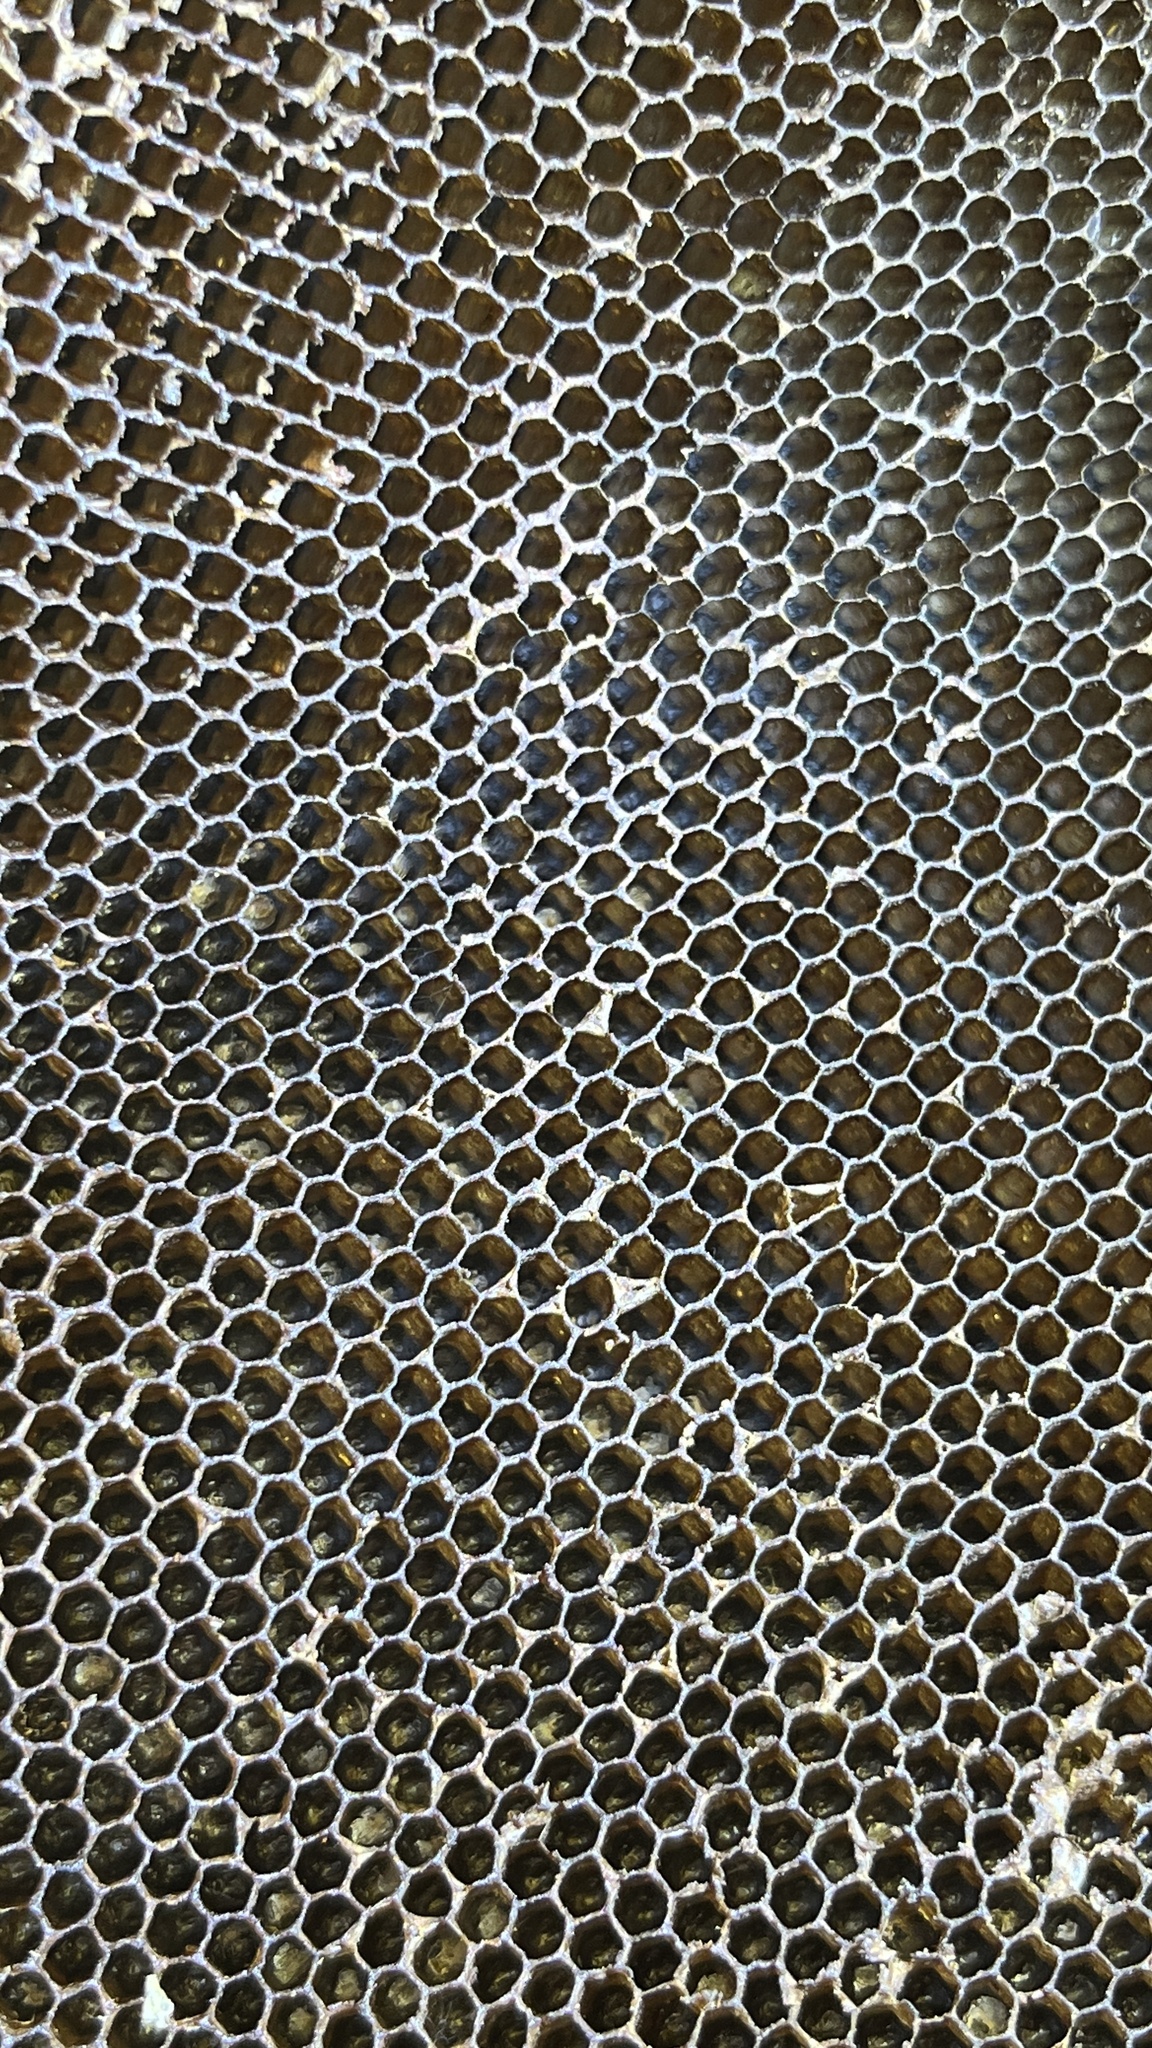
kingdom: Animalia
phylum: Arthropoda
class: Insecta
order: Hymenoptera
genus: Micrapis
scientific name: Micrapis
